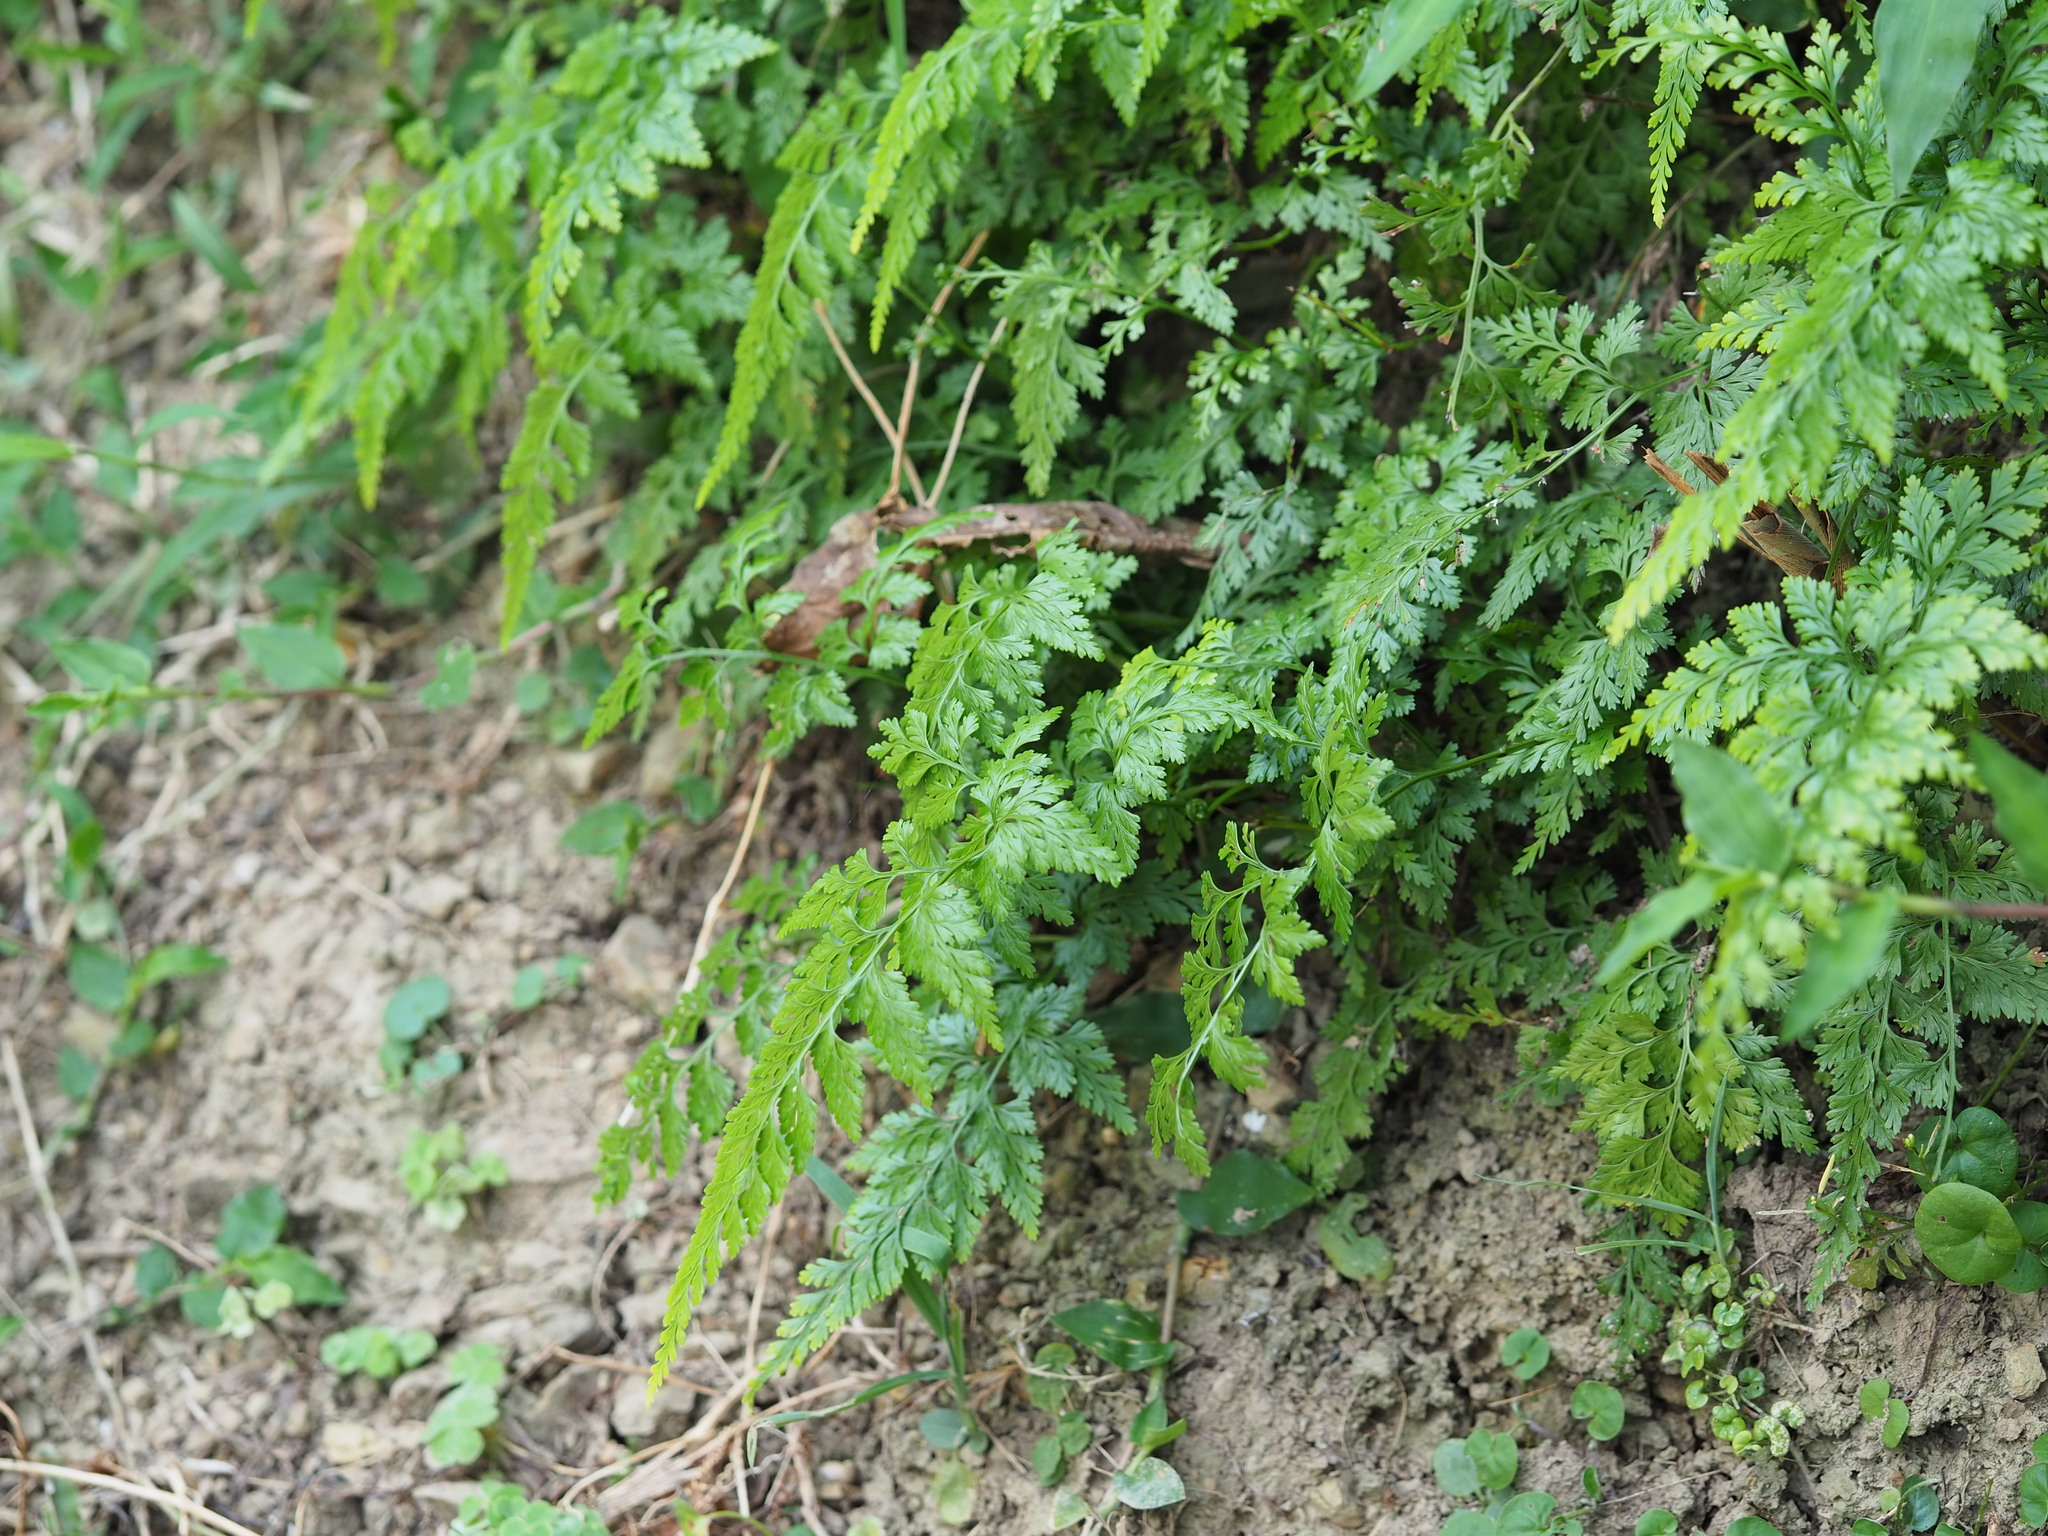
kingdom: Plantae
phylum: Tracheophyta
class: Polypodiopsida
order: Polypodiales
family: Pteridaceae
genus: Onychium
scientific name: Onychium japonicum
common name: Carrot fern
